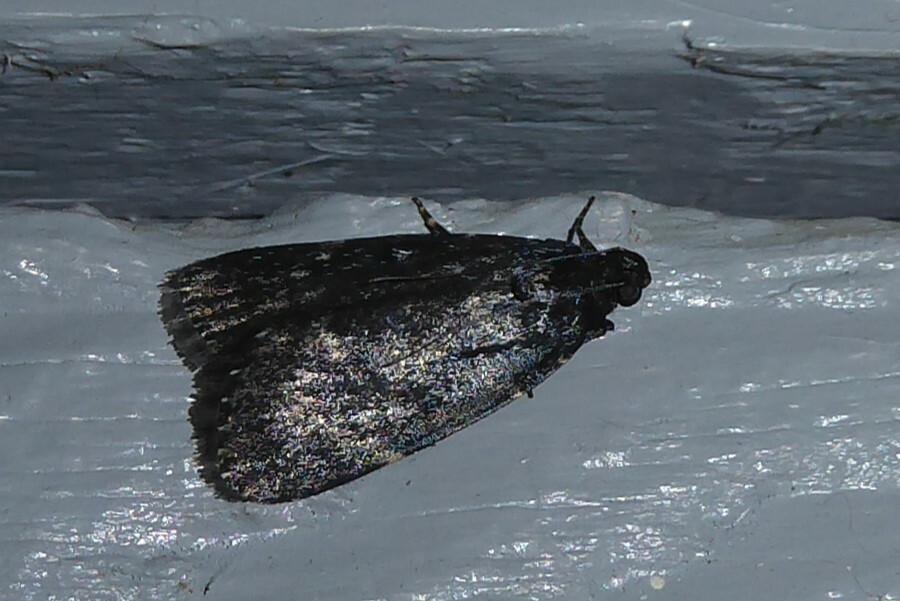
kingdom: Animalia
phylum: Arthropoda
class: Insecta
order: Lepidoptera
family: Pyralidae
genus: Stericta
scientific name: Stericta carbonalis
